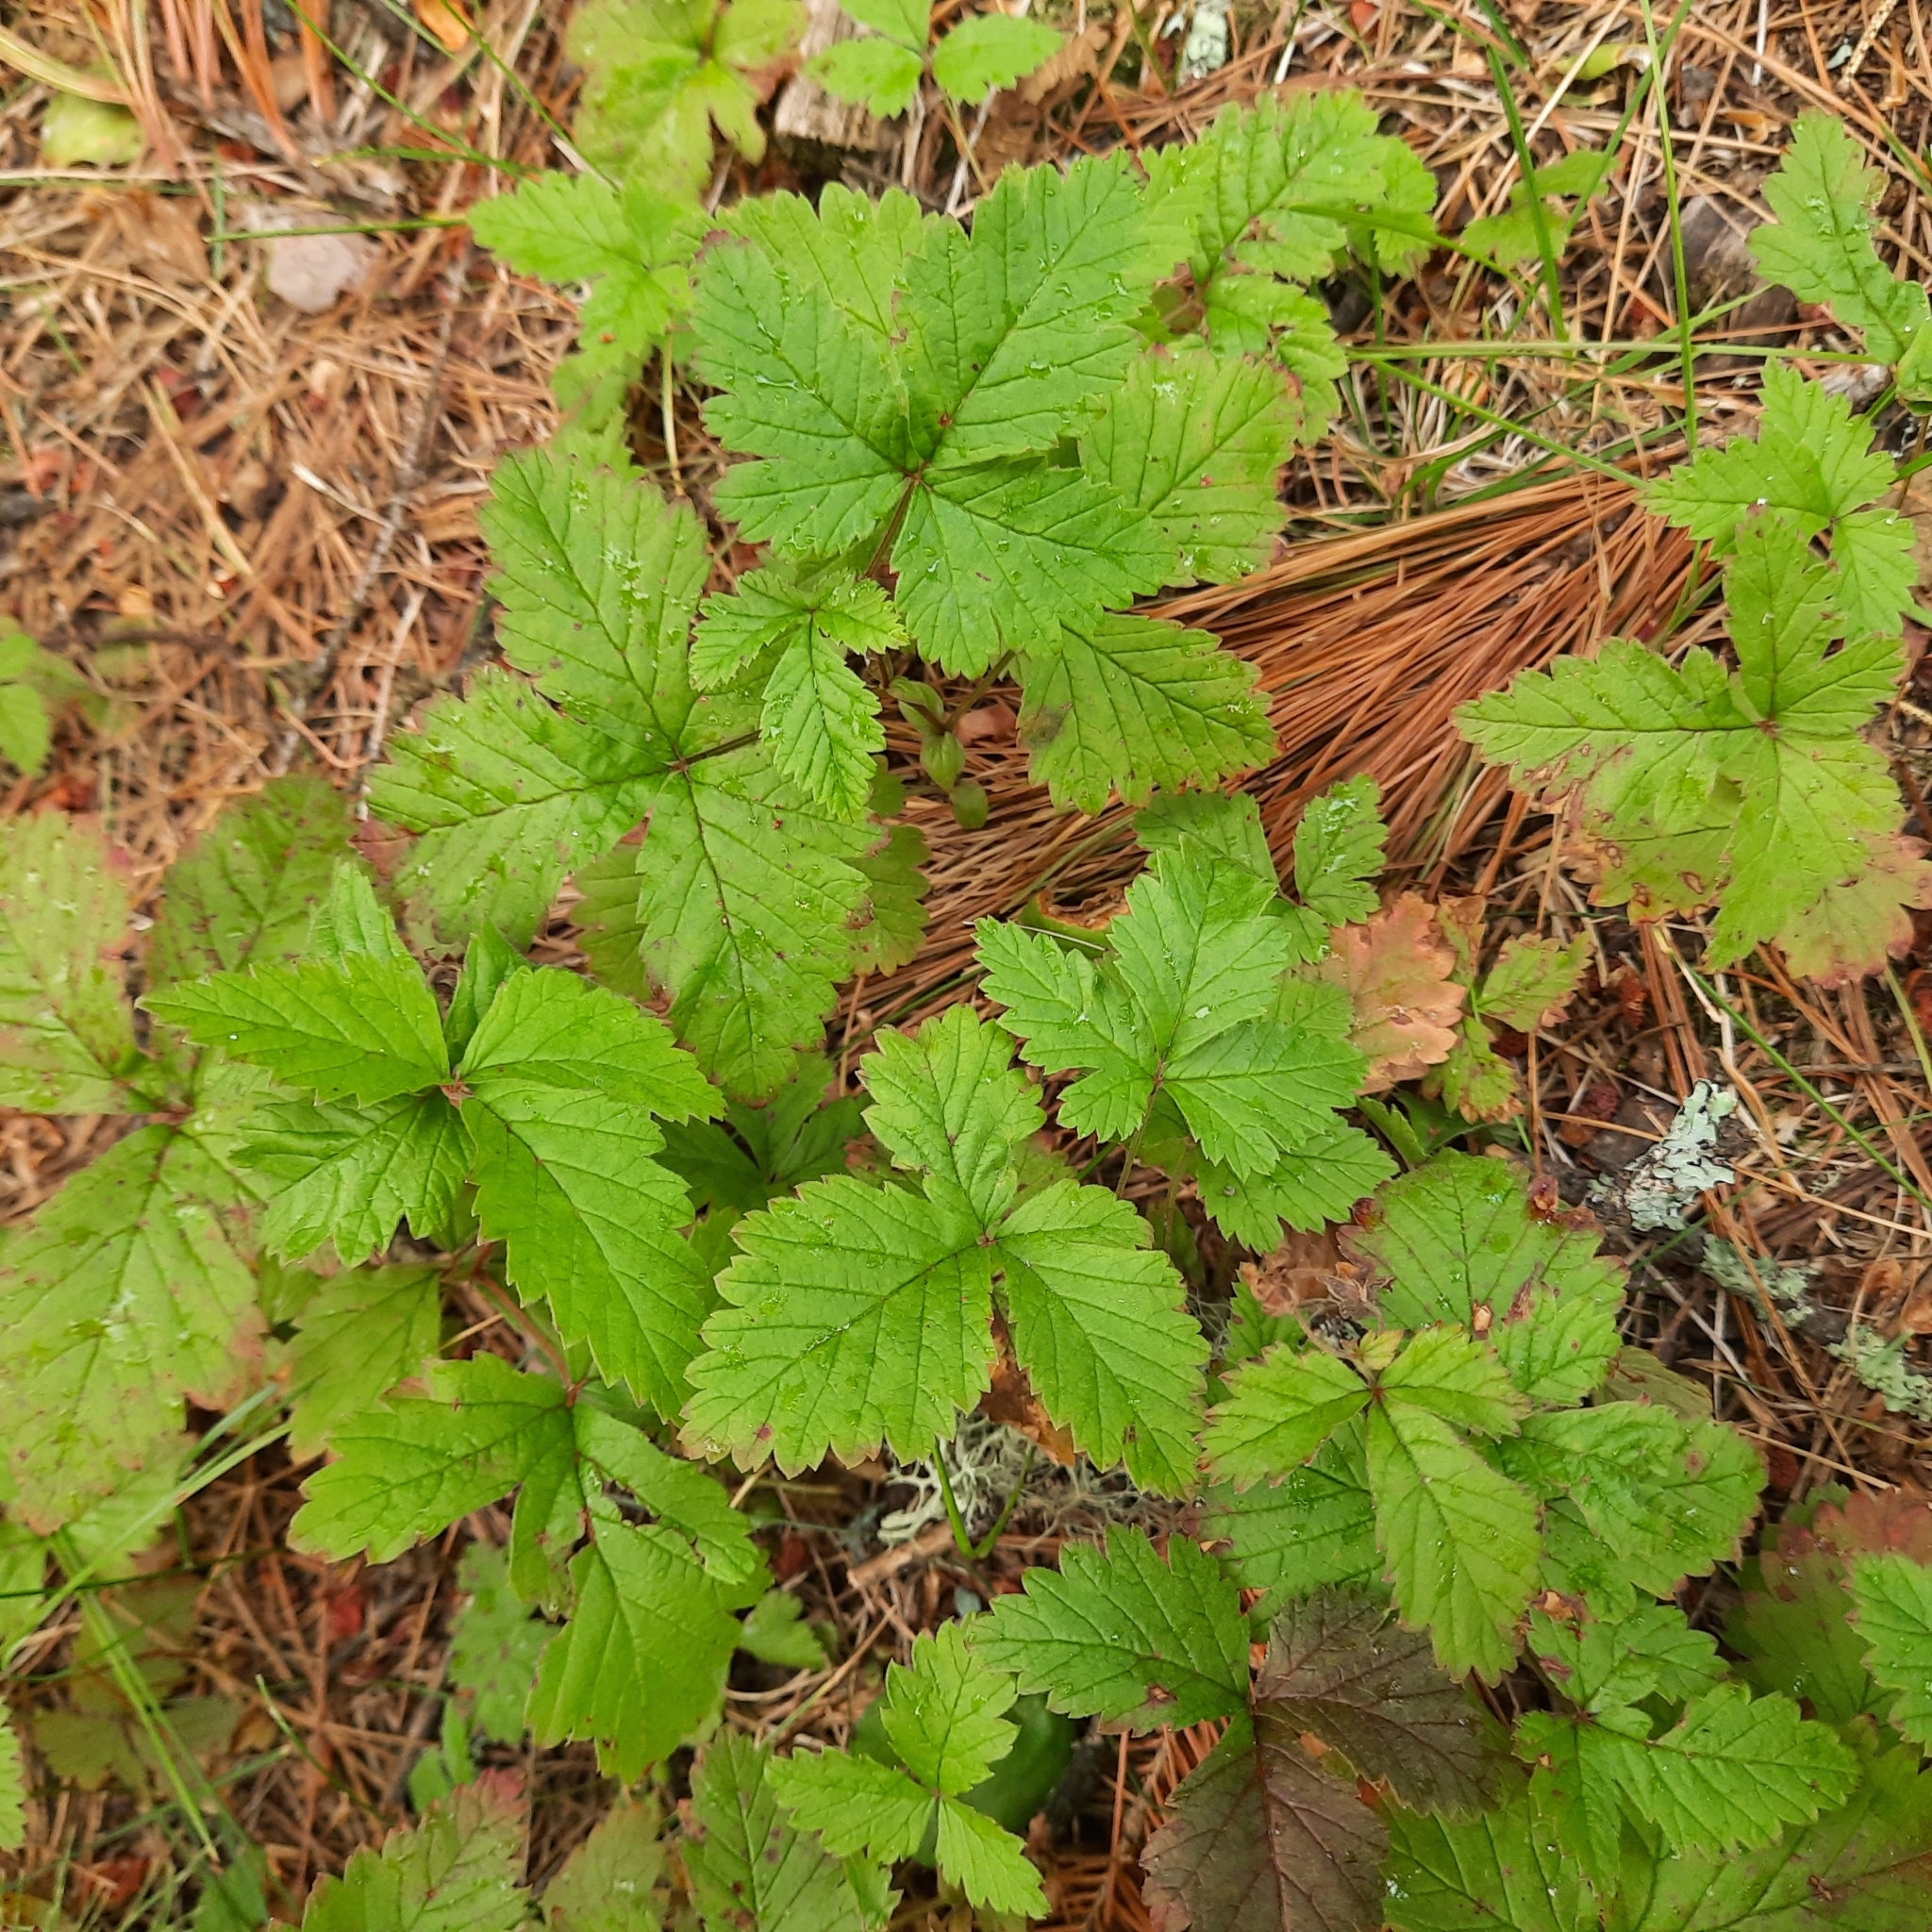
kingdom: Plantae
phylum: Tracheophyta
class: Magnoliopsida
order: Rosales
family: Rosaceae
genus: Rubus
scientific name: Rubus arcticus
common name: Arctic bramble
